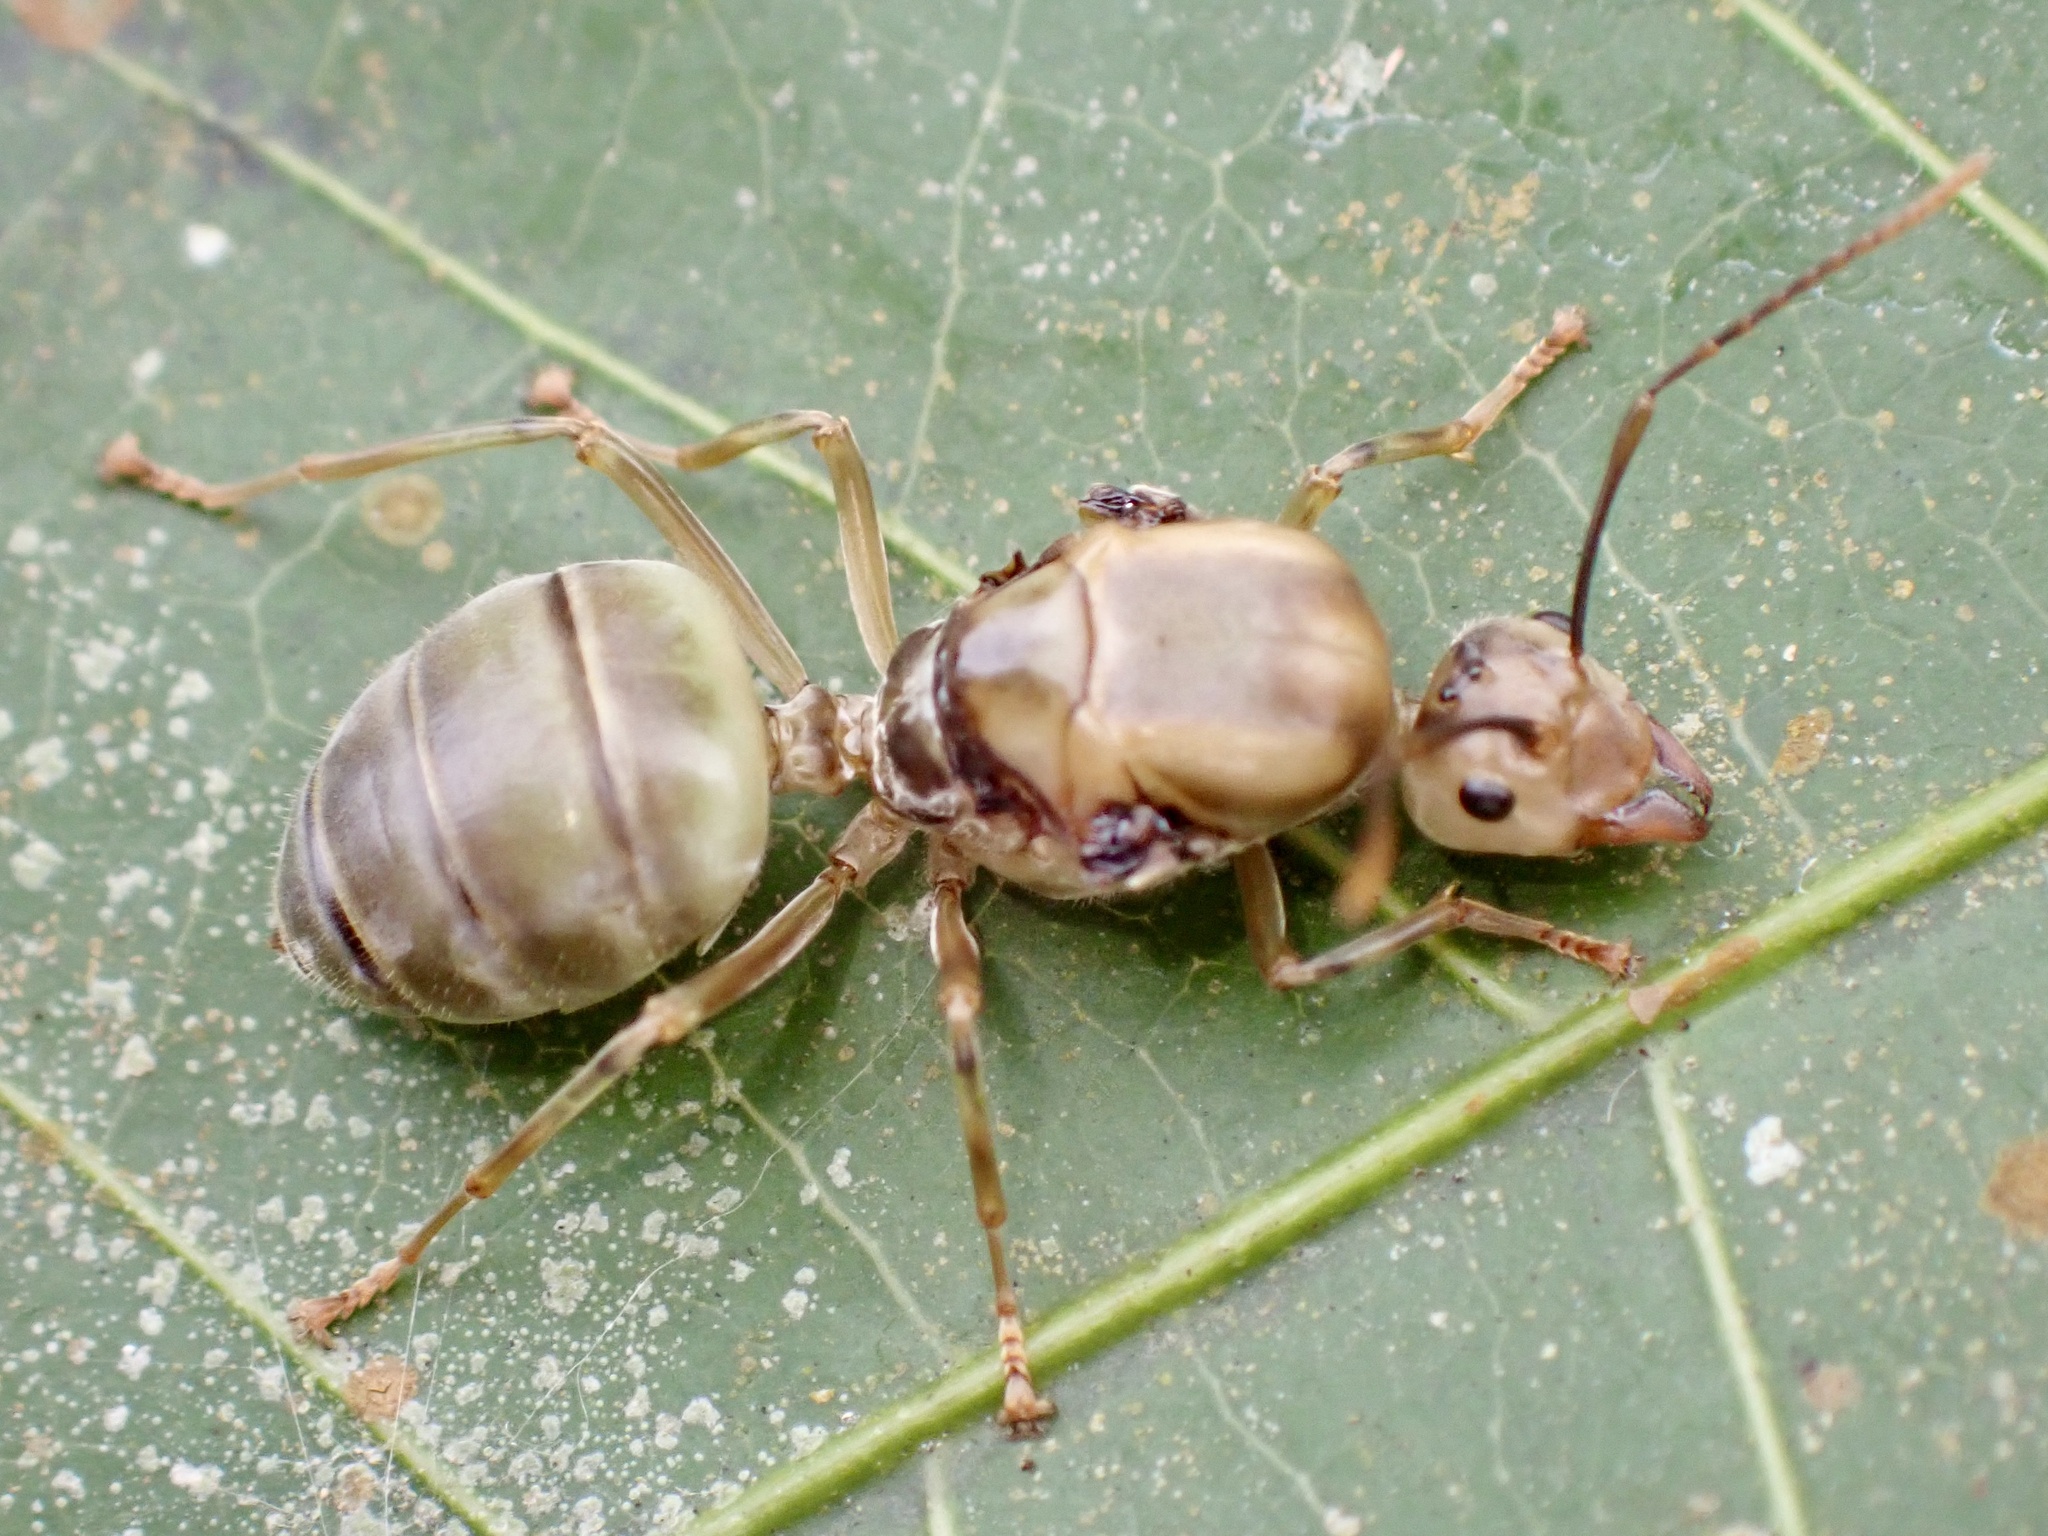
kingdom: Animalia
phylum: Arthropoda
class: Insecta
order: Hymenoptera
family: Formicidae
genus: Oecophylla
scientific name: Oecophylla smaragdina
